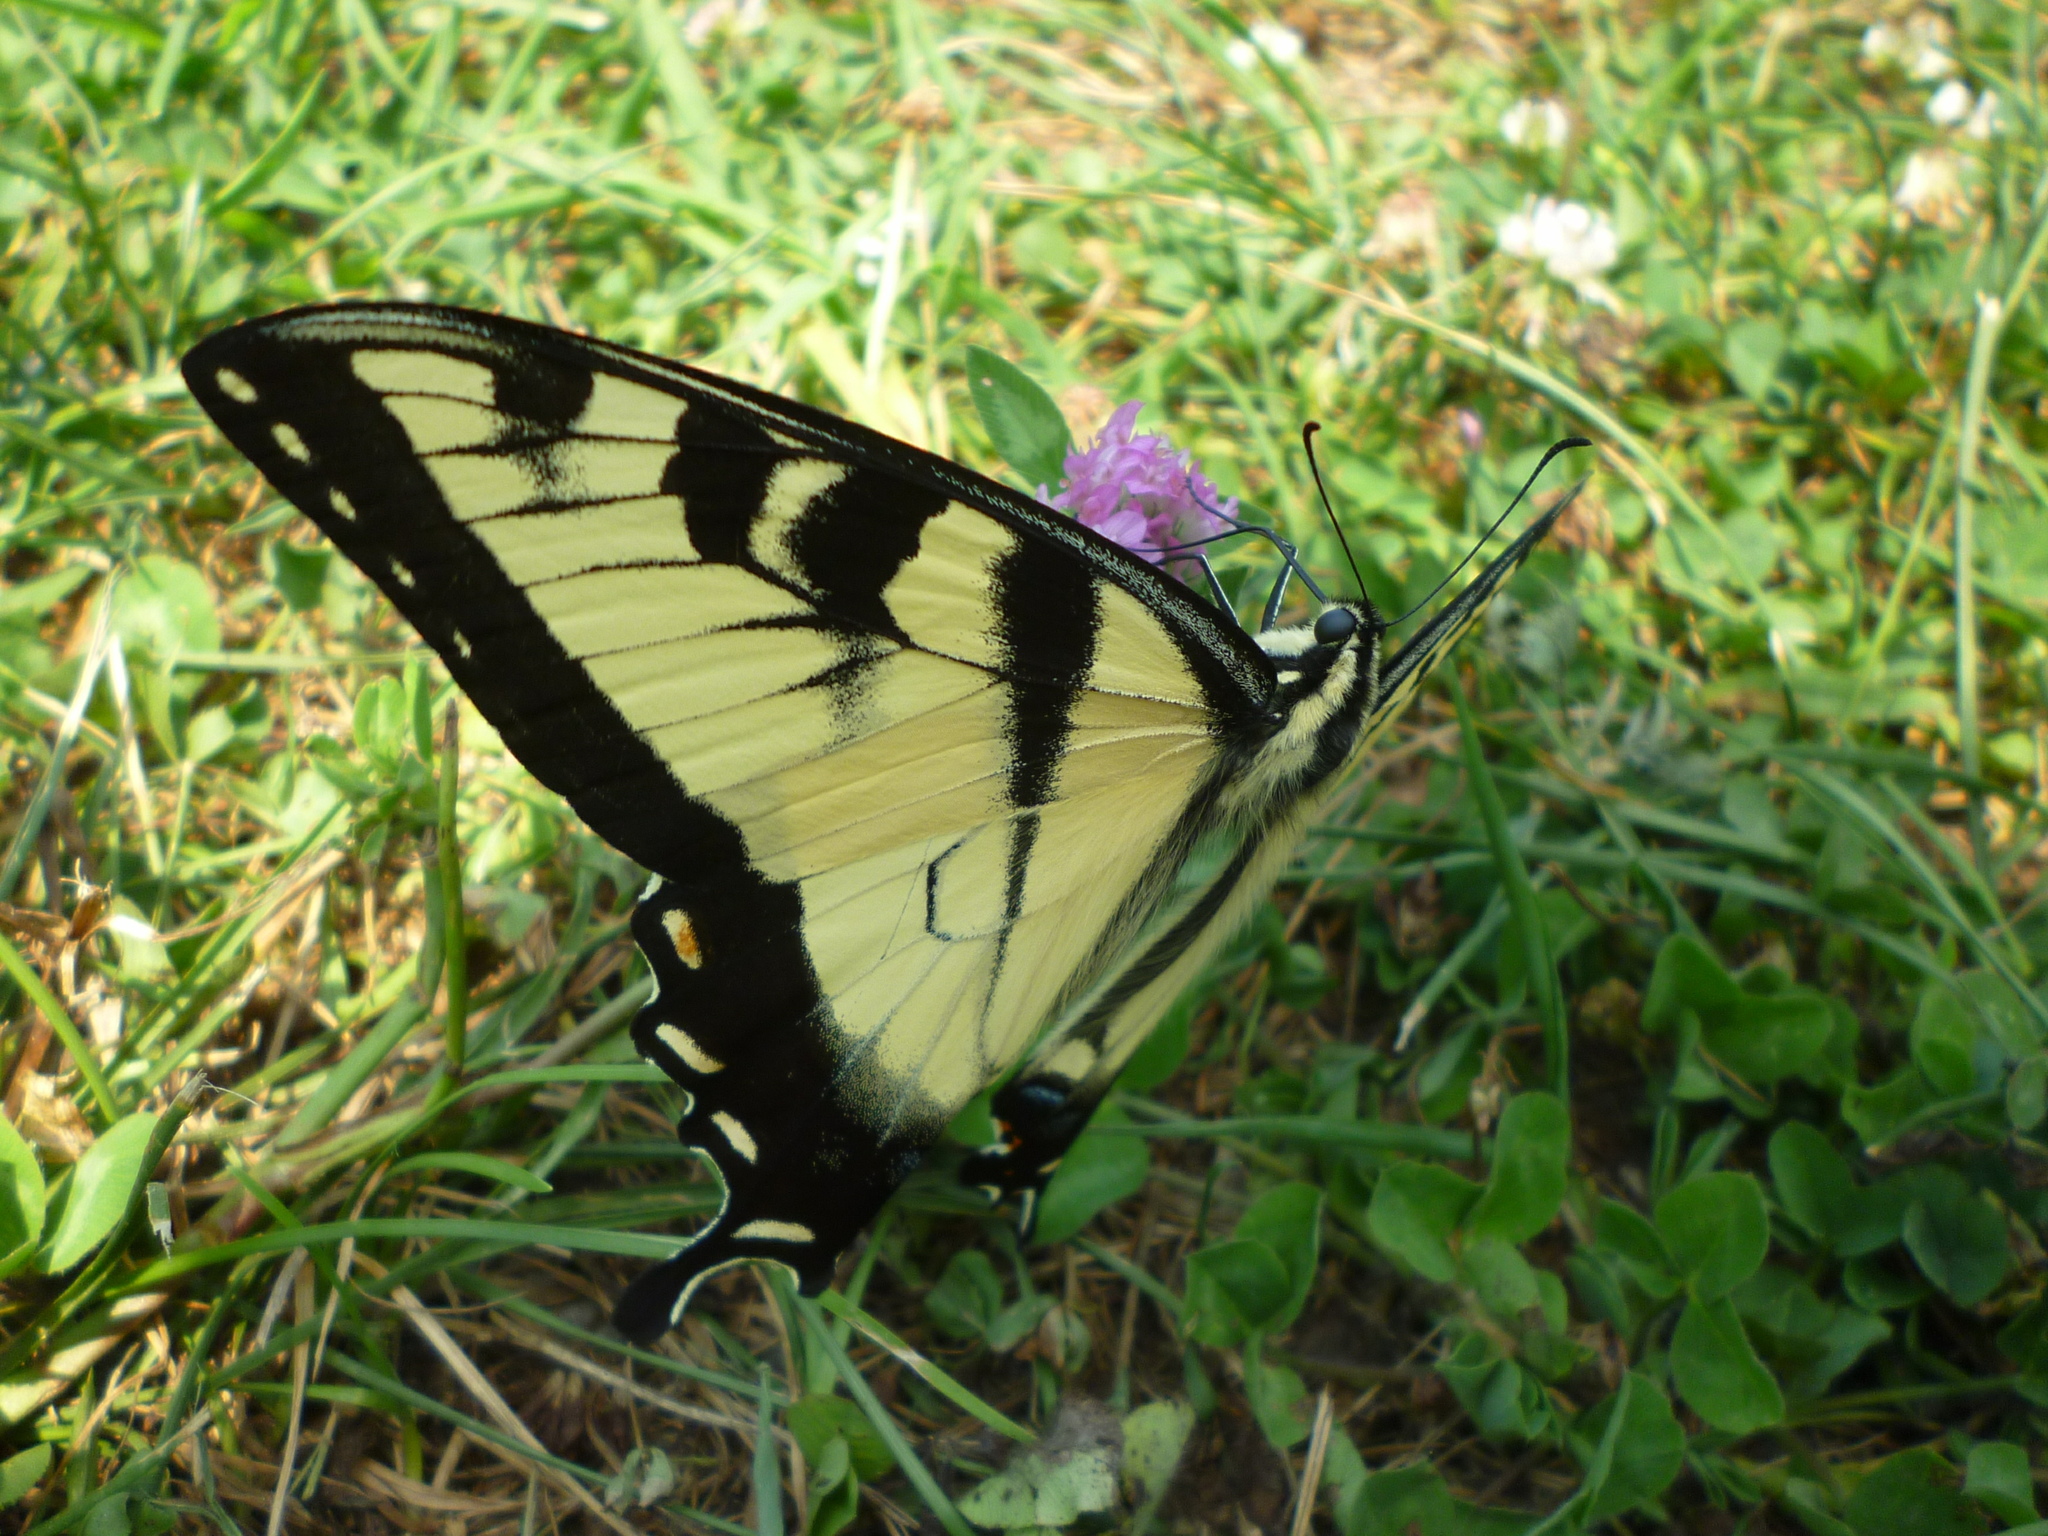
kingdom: Animalia
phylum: Arthropoda
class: Insecta
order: Lepidoptera
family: Papilionidae
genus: Papilio
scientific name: Papilio glaucus
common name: Tiger swallowtail
